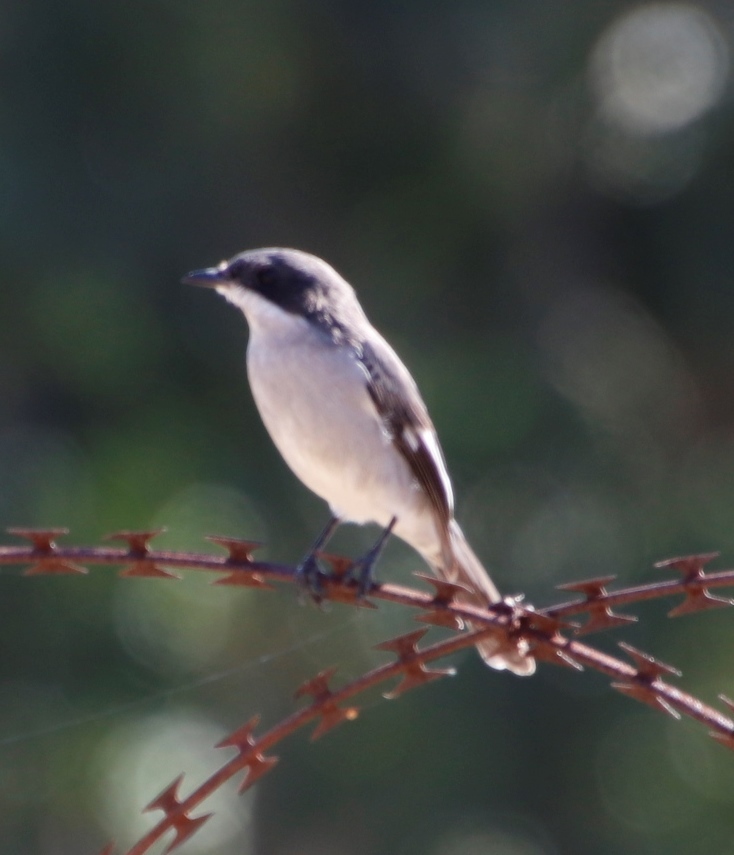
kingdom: Animalia
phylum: Chordata
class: Aves
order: Passeriformes
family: Muscicapidae
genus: Sigelus
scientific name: Sigelus silens
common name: Fiscal flycatcher
